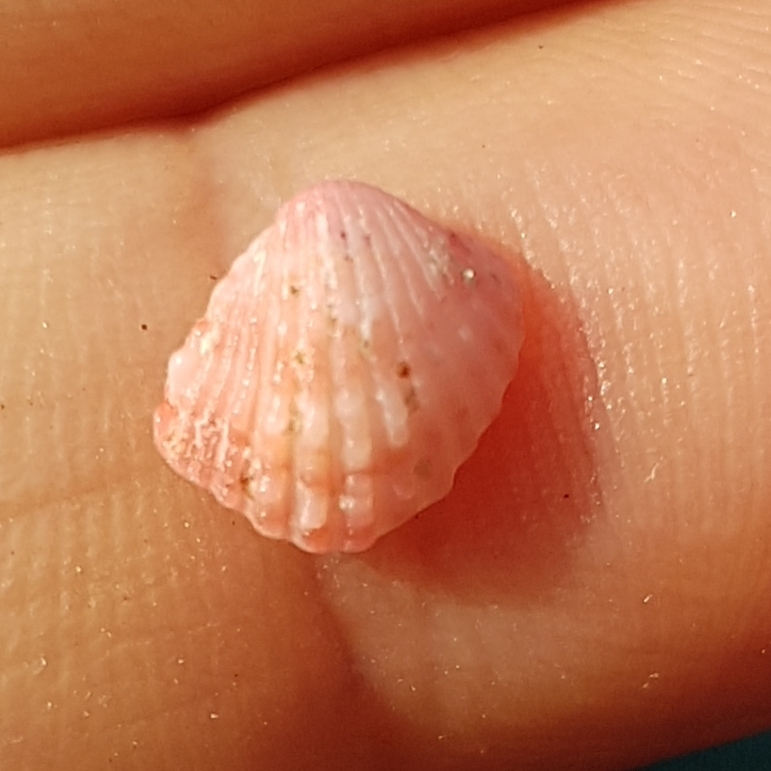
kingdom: Animalia
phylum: Mollusca
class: Bivalvia
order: Carditida
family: Carditidae
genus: Glans
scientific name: Glans trapezia
